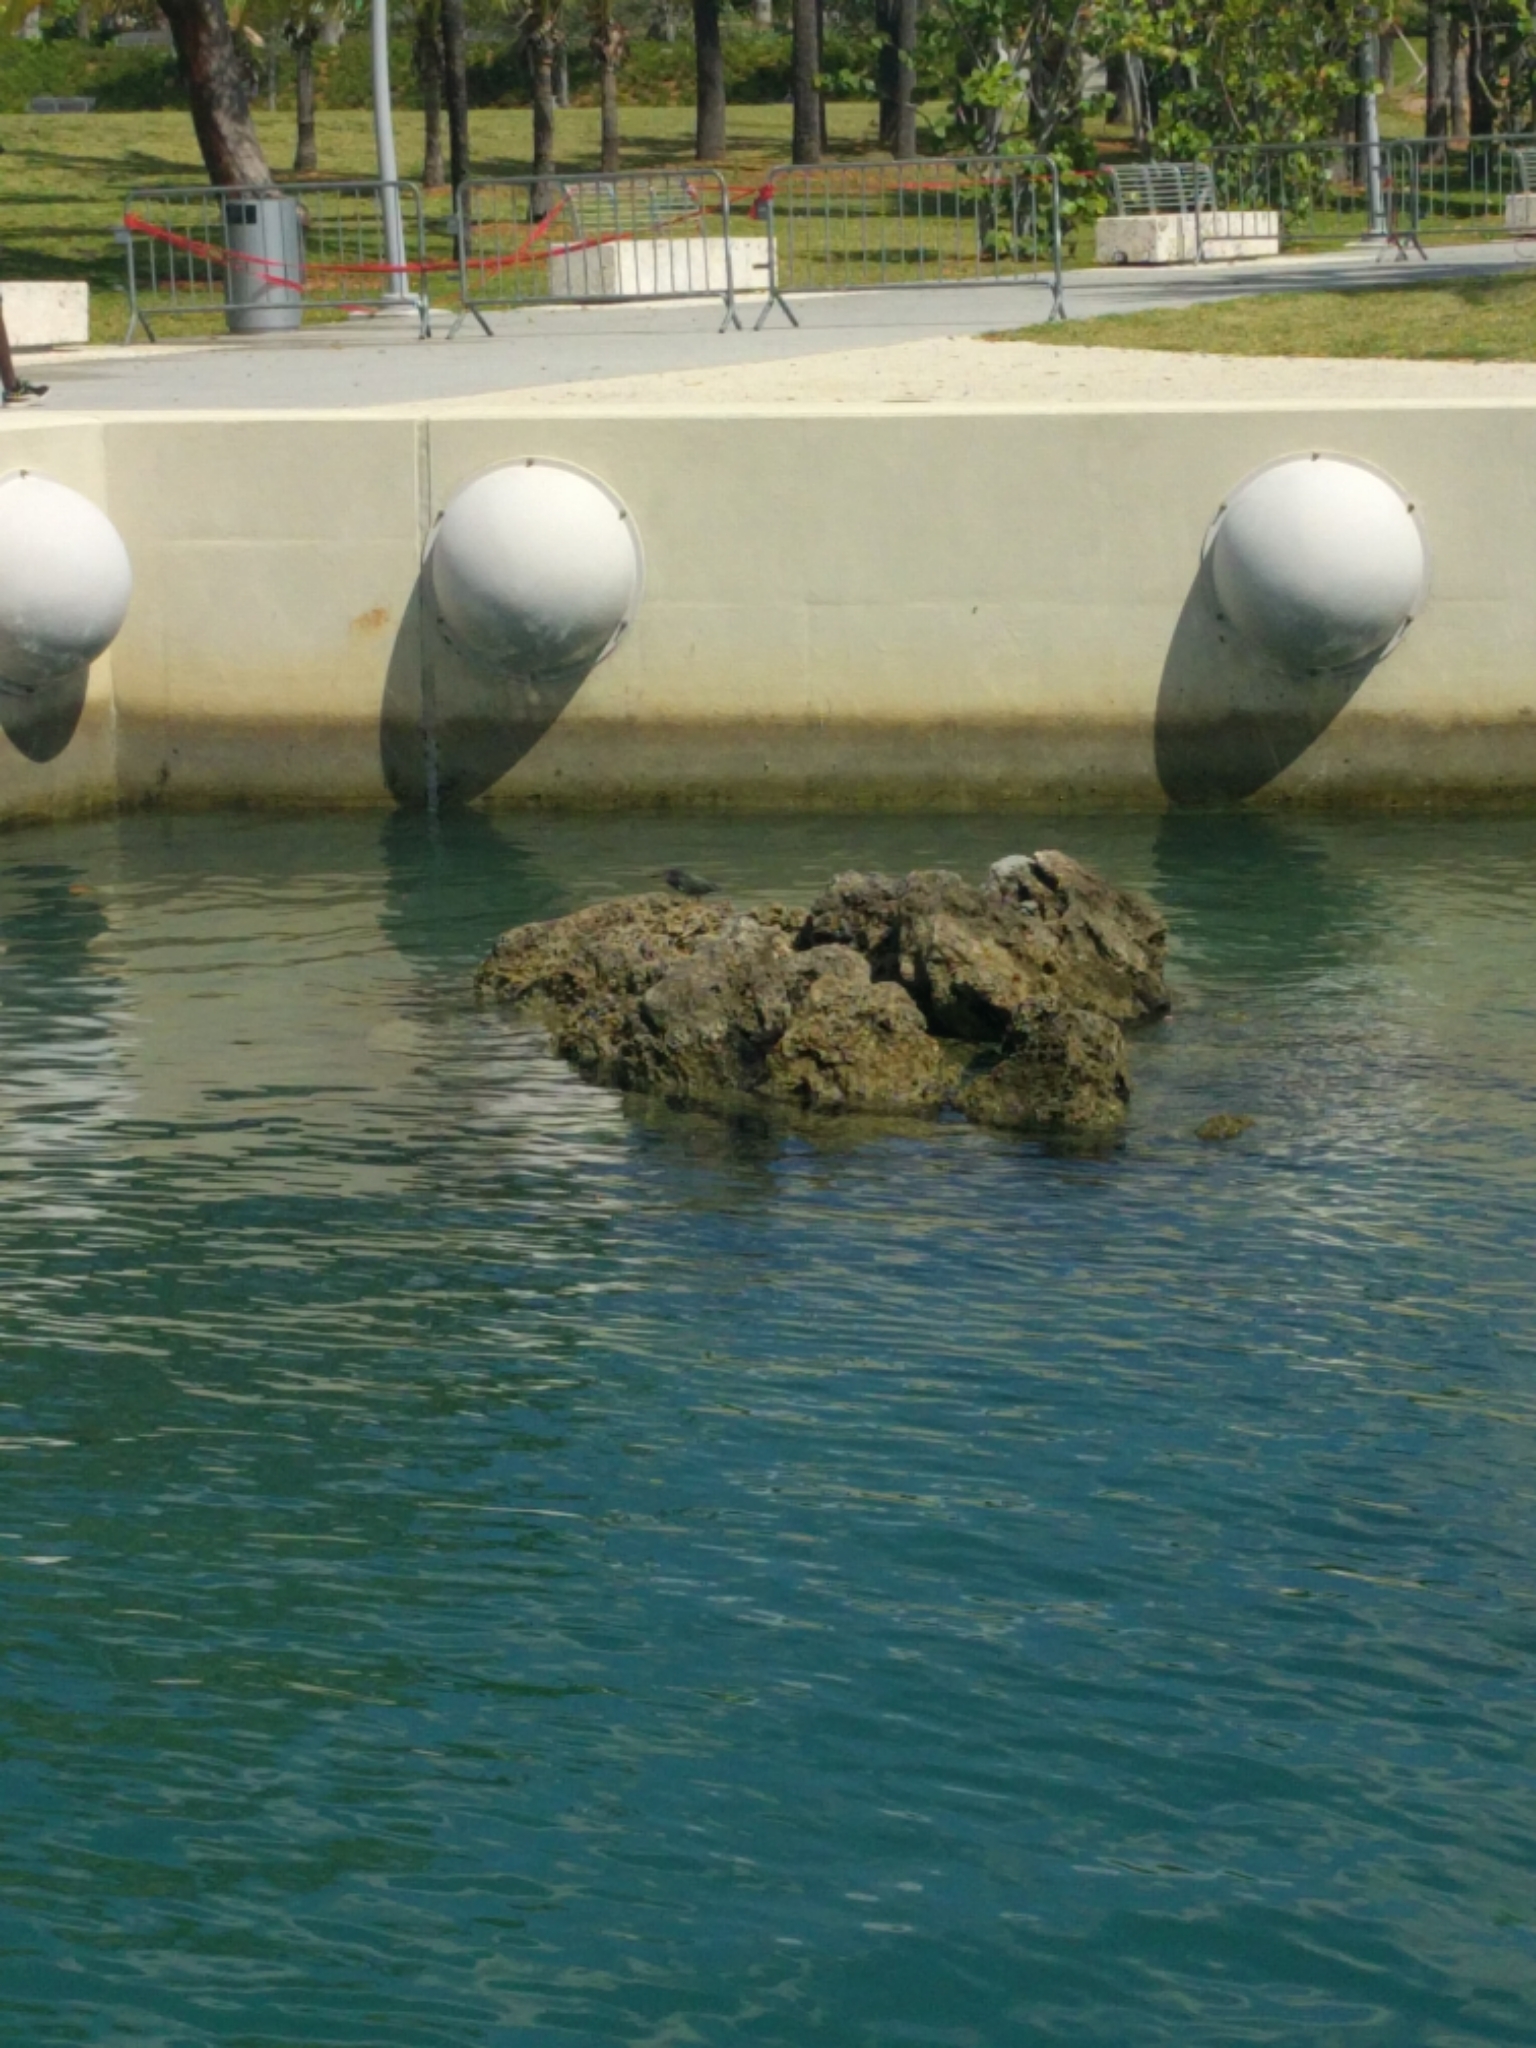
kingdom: Animalia
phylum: Chordata
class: Aves
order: Pelecaniformes
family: Ardeidae
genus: Butorides
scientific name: Butorides virescens
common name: Green heron
